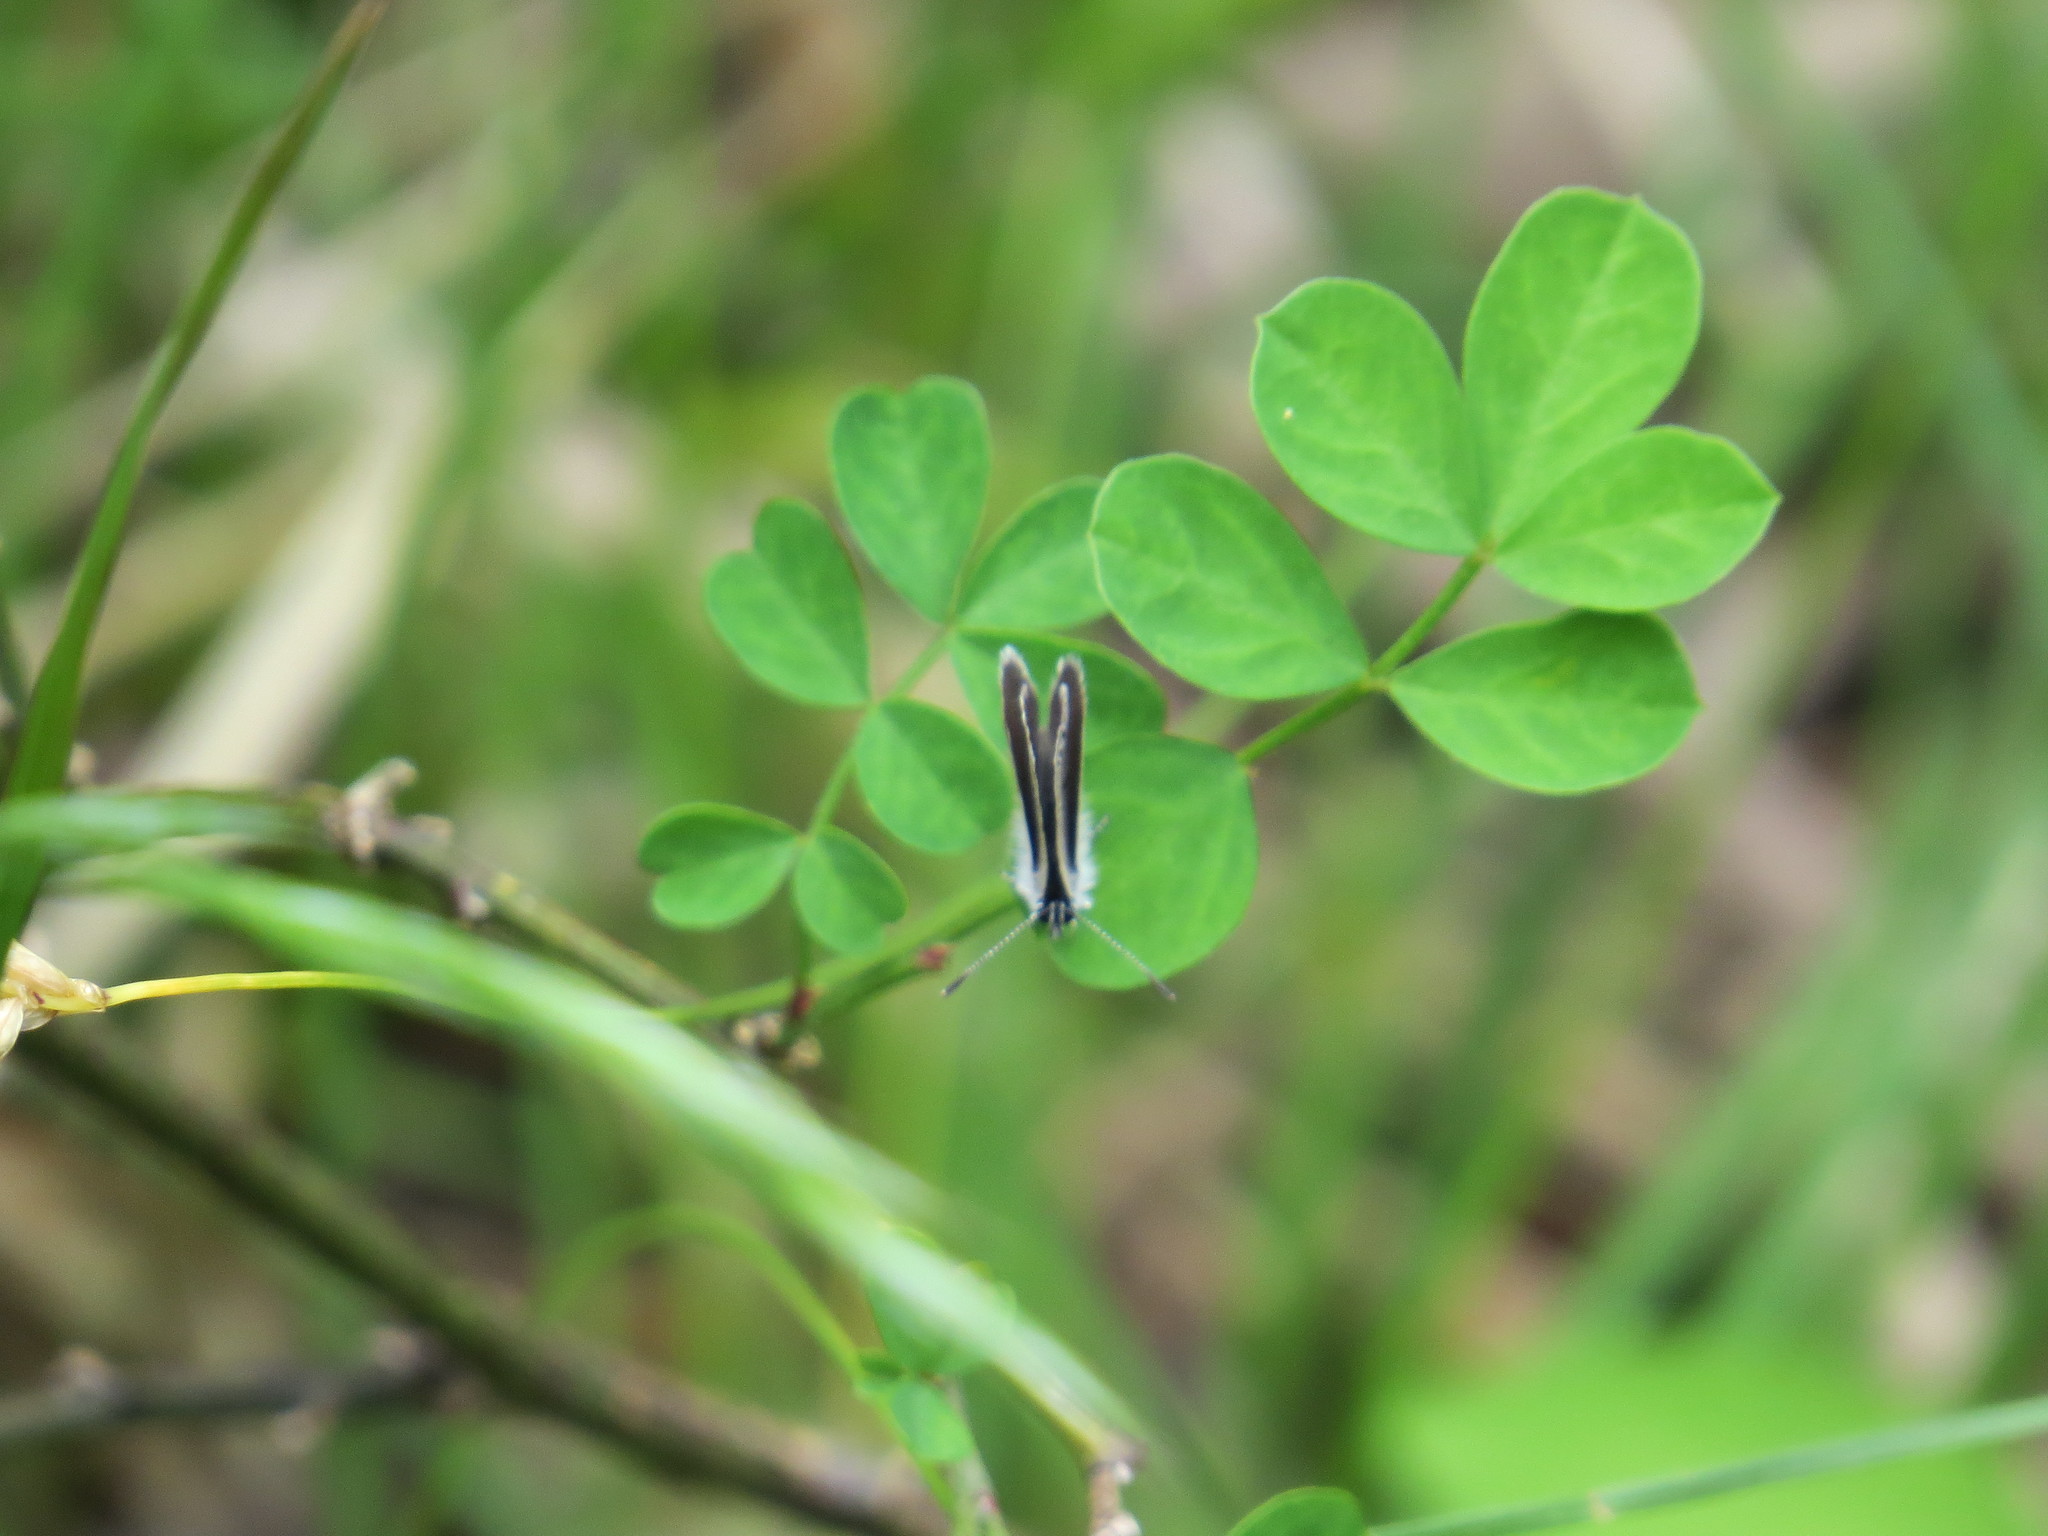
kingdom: Animalia
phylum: Arthropoda
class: Insecta
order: Lepidoptera
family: Lycaenidae
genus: Cupido
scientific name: Cupido minimus
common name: Small blue
